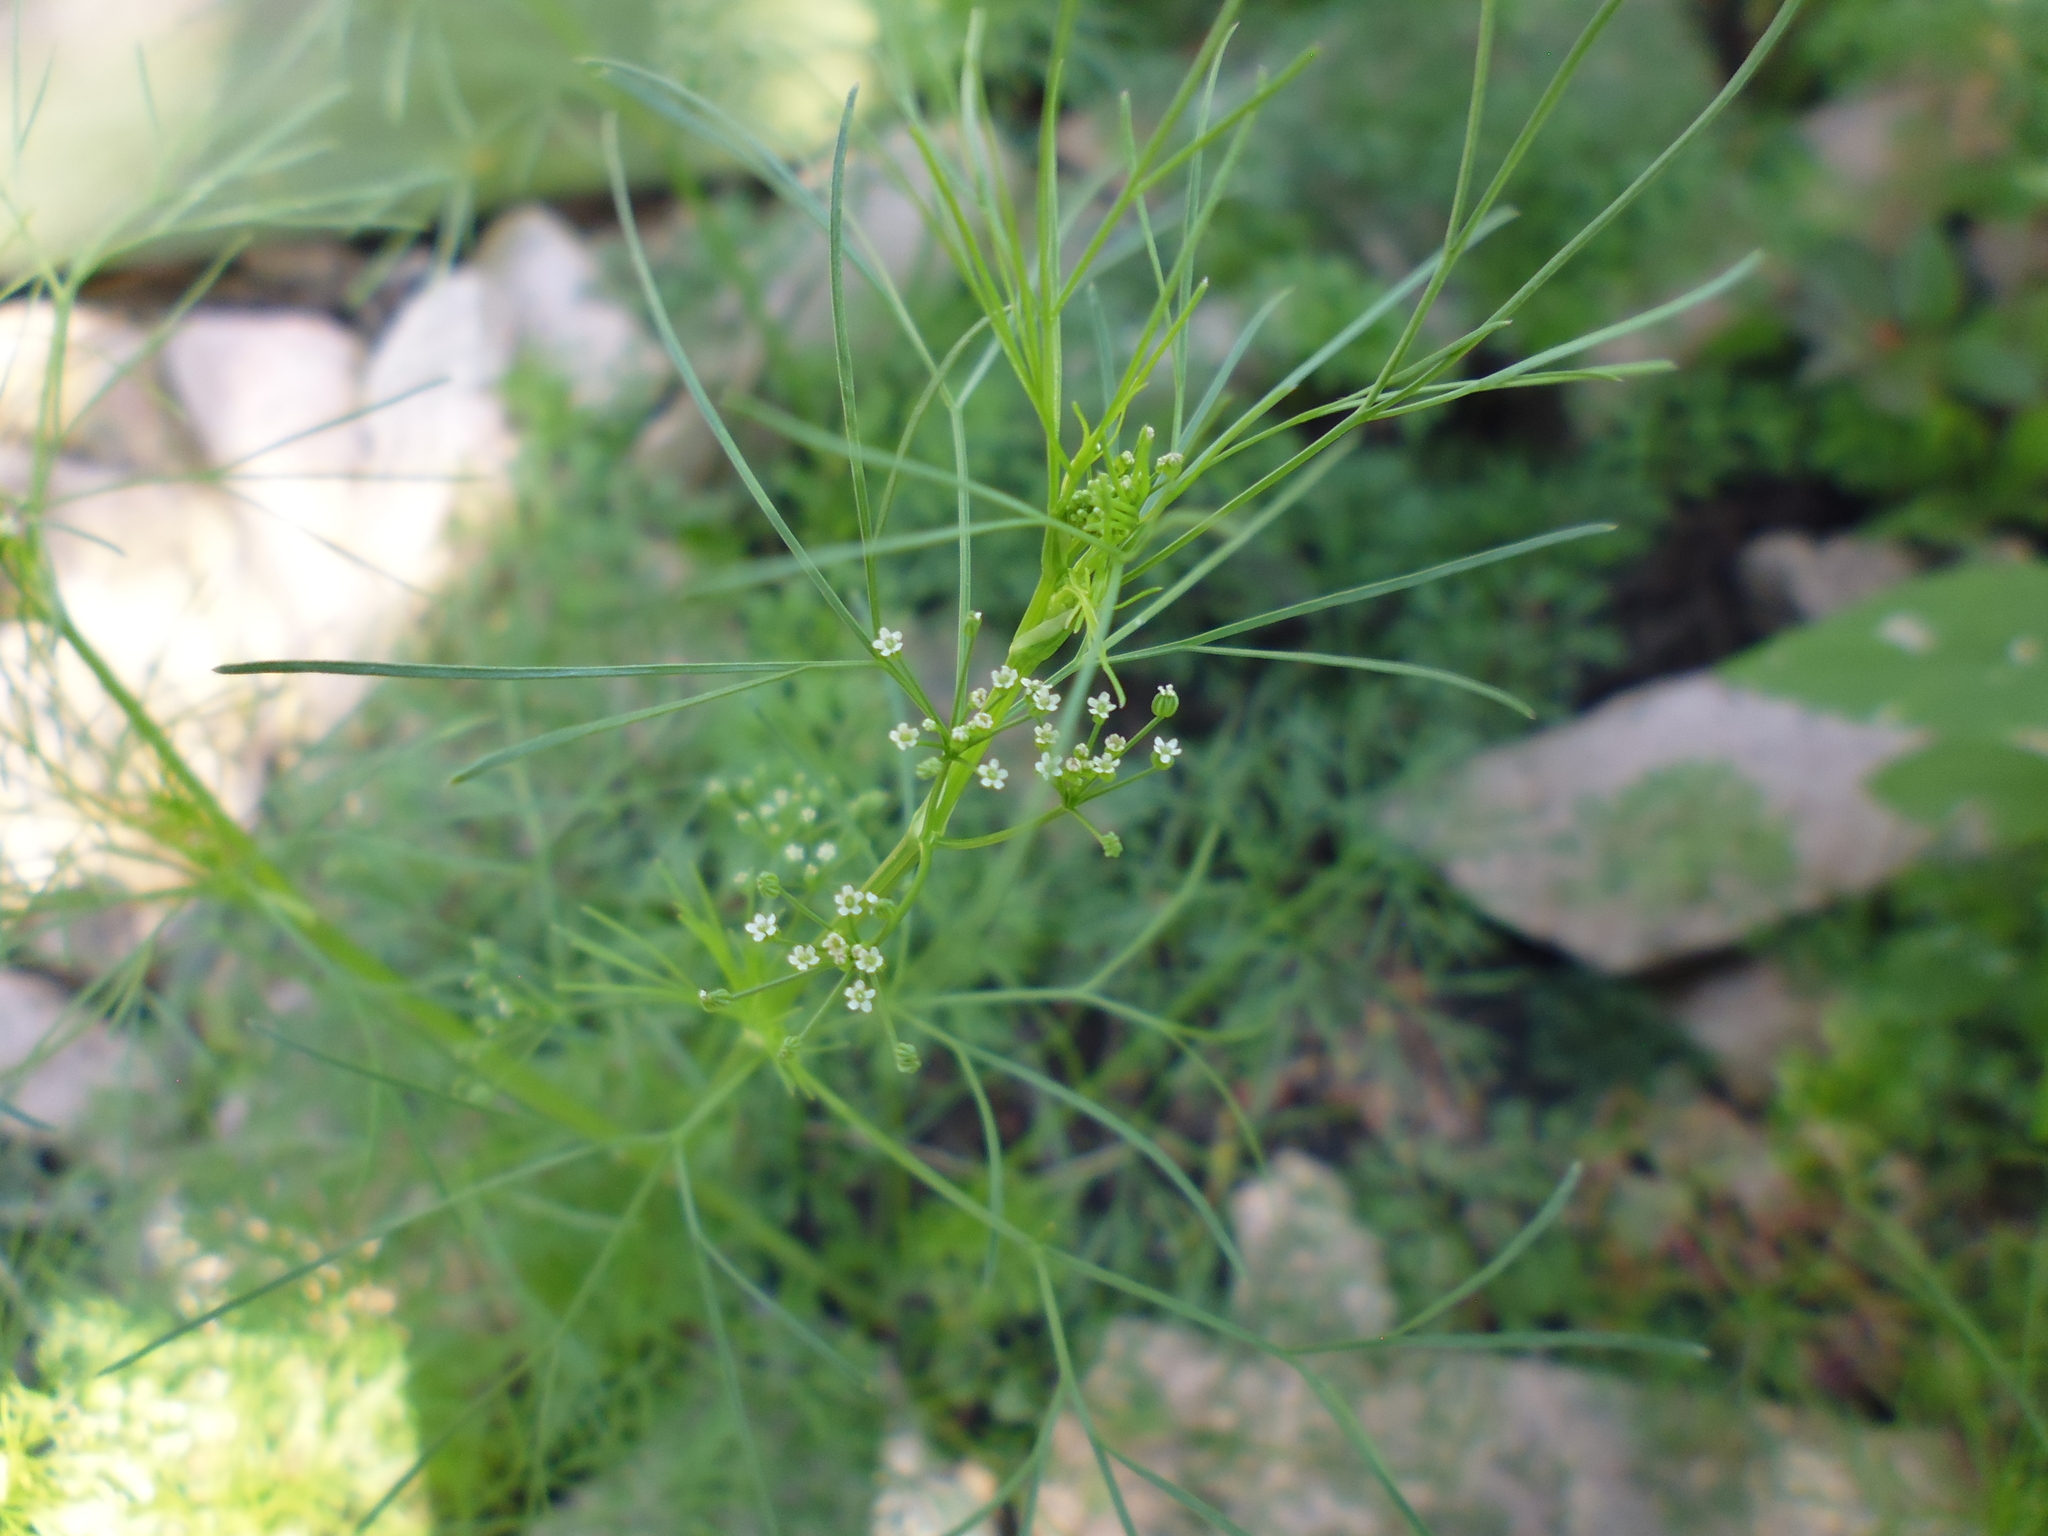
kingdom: Plantae
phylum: Tracheophyta
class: Magnoliopsida
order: Apiales
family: Apiaceae
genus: Cyclospermum
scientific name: Cyclospermum leptophyllum
